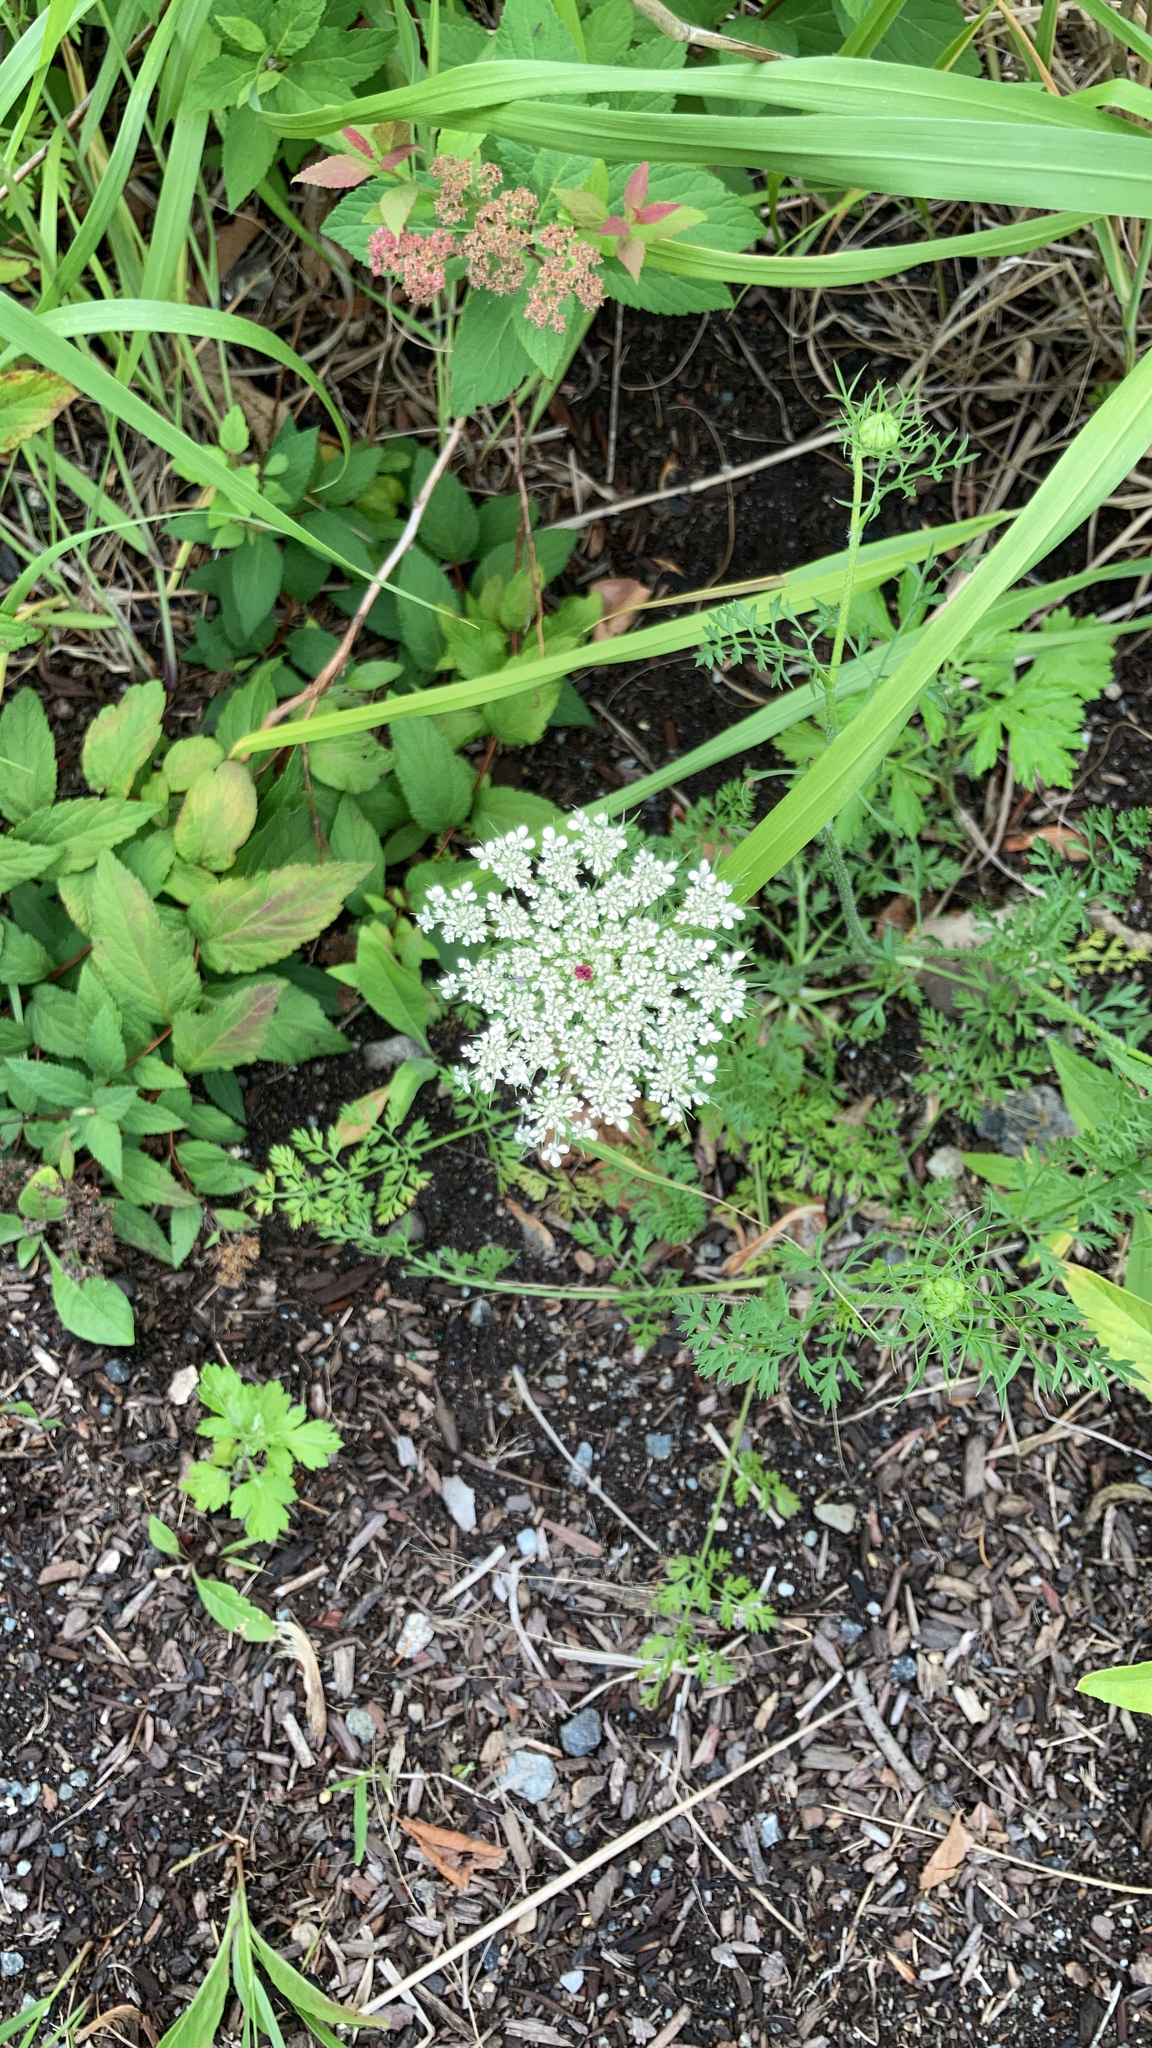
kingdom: Plantae
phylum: Tracheophyta
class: Magnoliopsida
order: Apiales
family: Apiaceae
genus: Daucus
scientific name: Daucus carota
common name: Wild carrot
